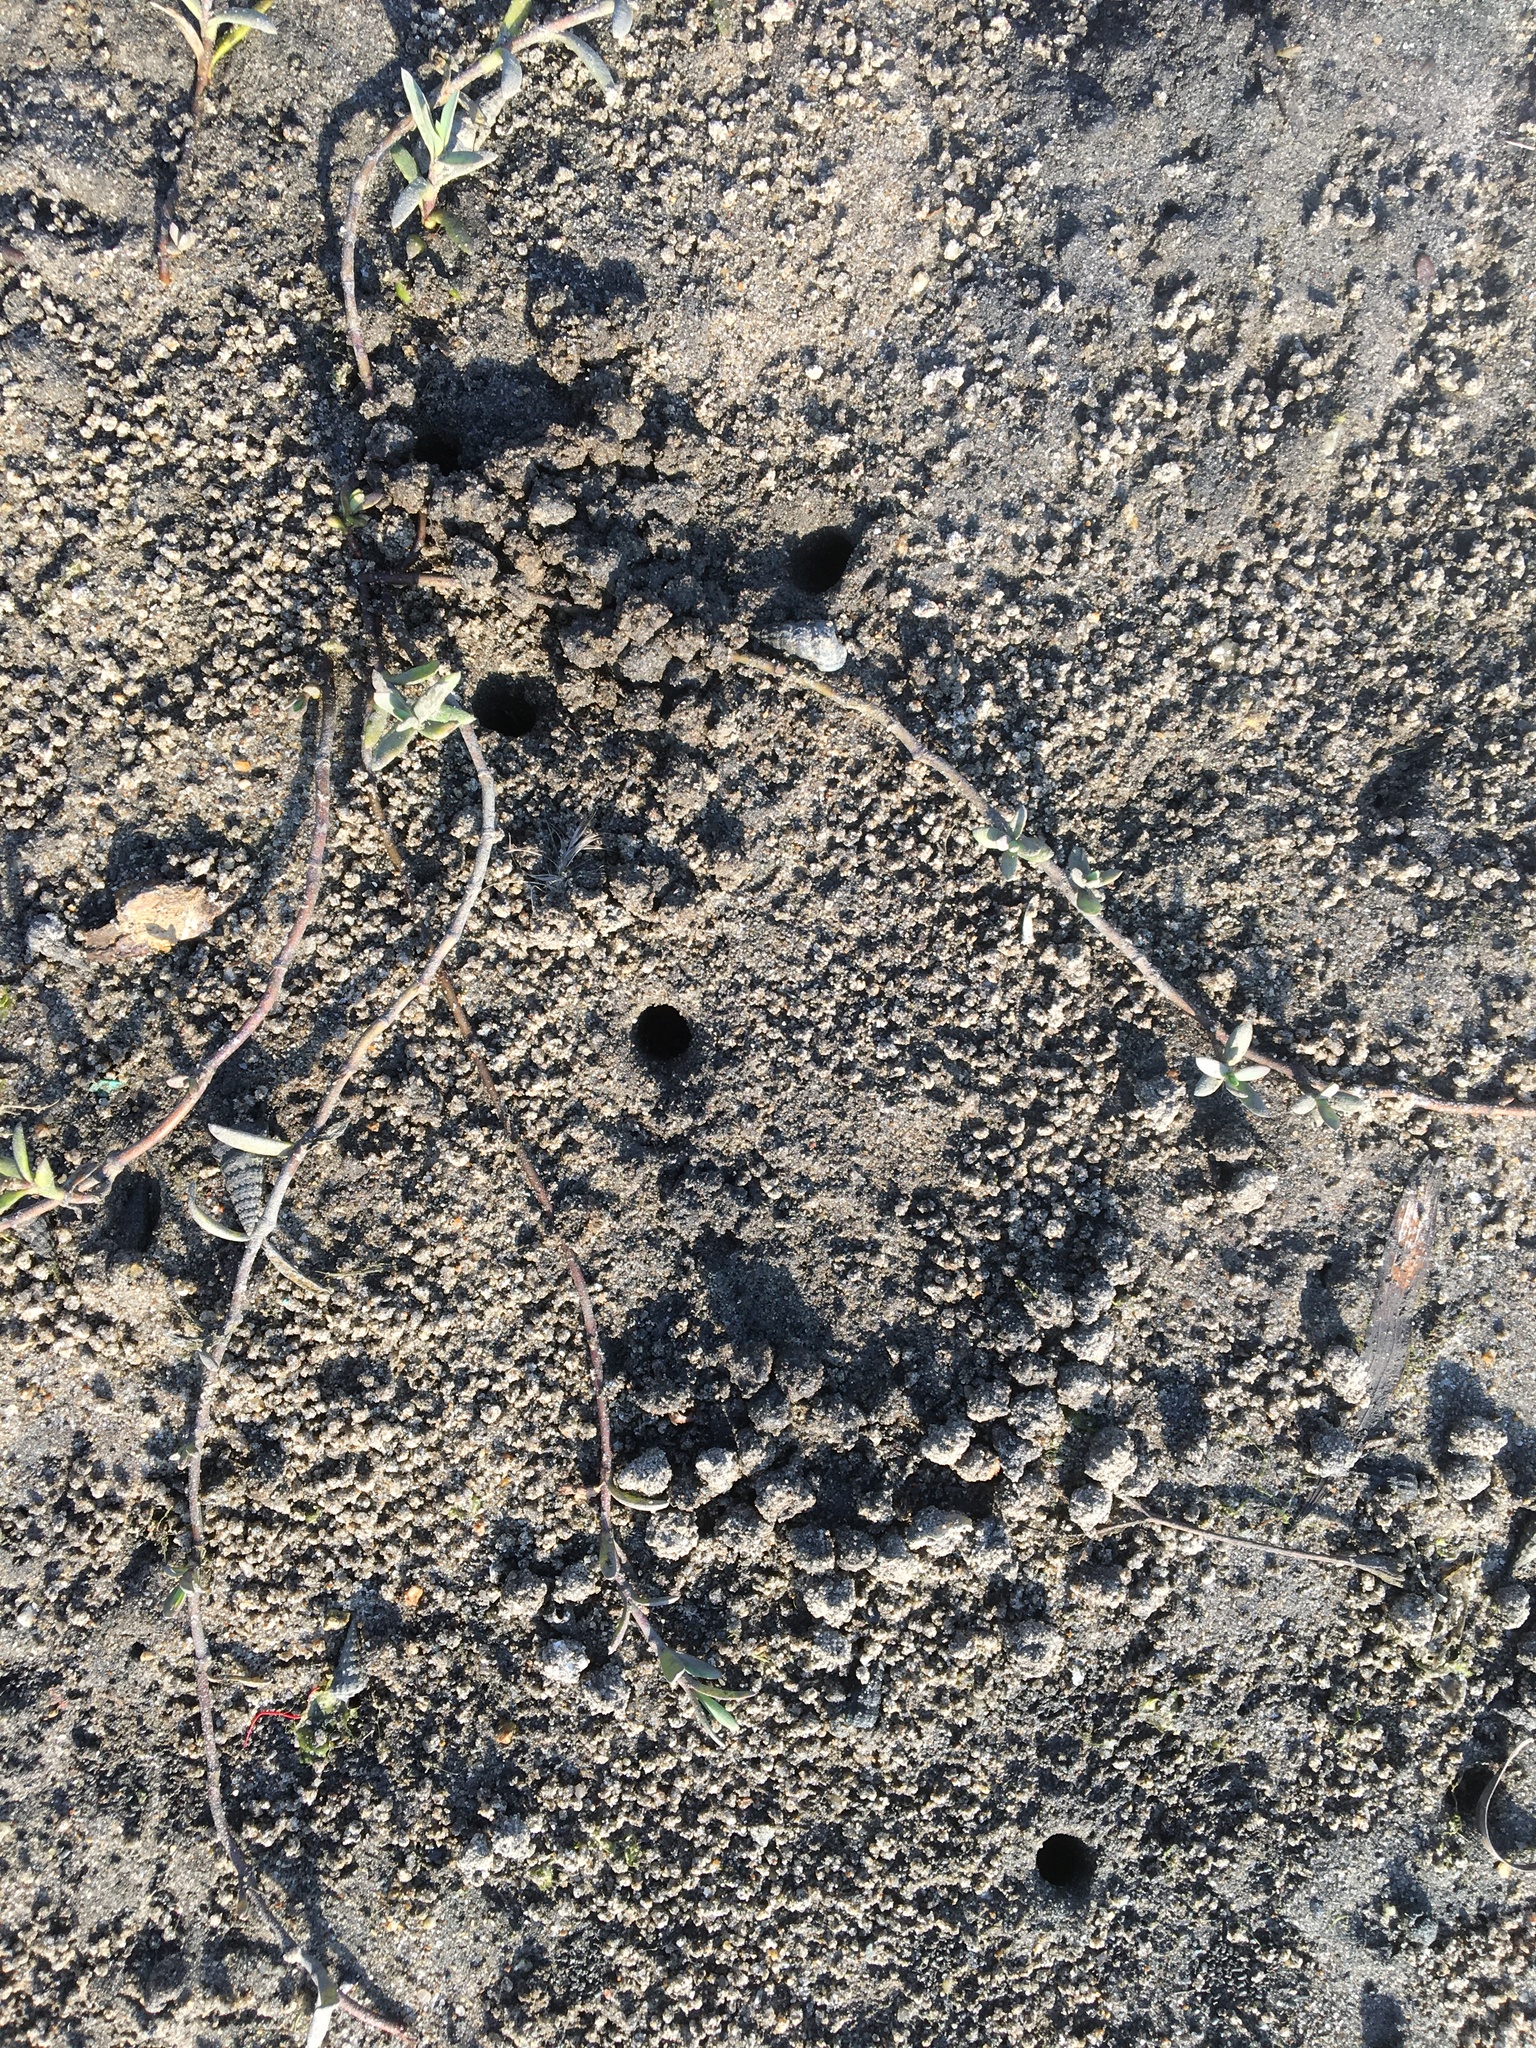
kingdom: Animalia
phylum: Arthropoda
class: Malacostraca
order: Decapoda
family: Ocypodidae
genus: Leptuca
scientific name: Leptuca crenulata
